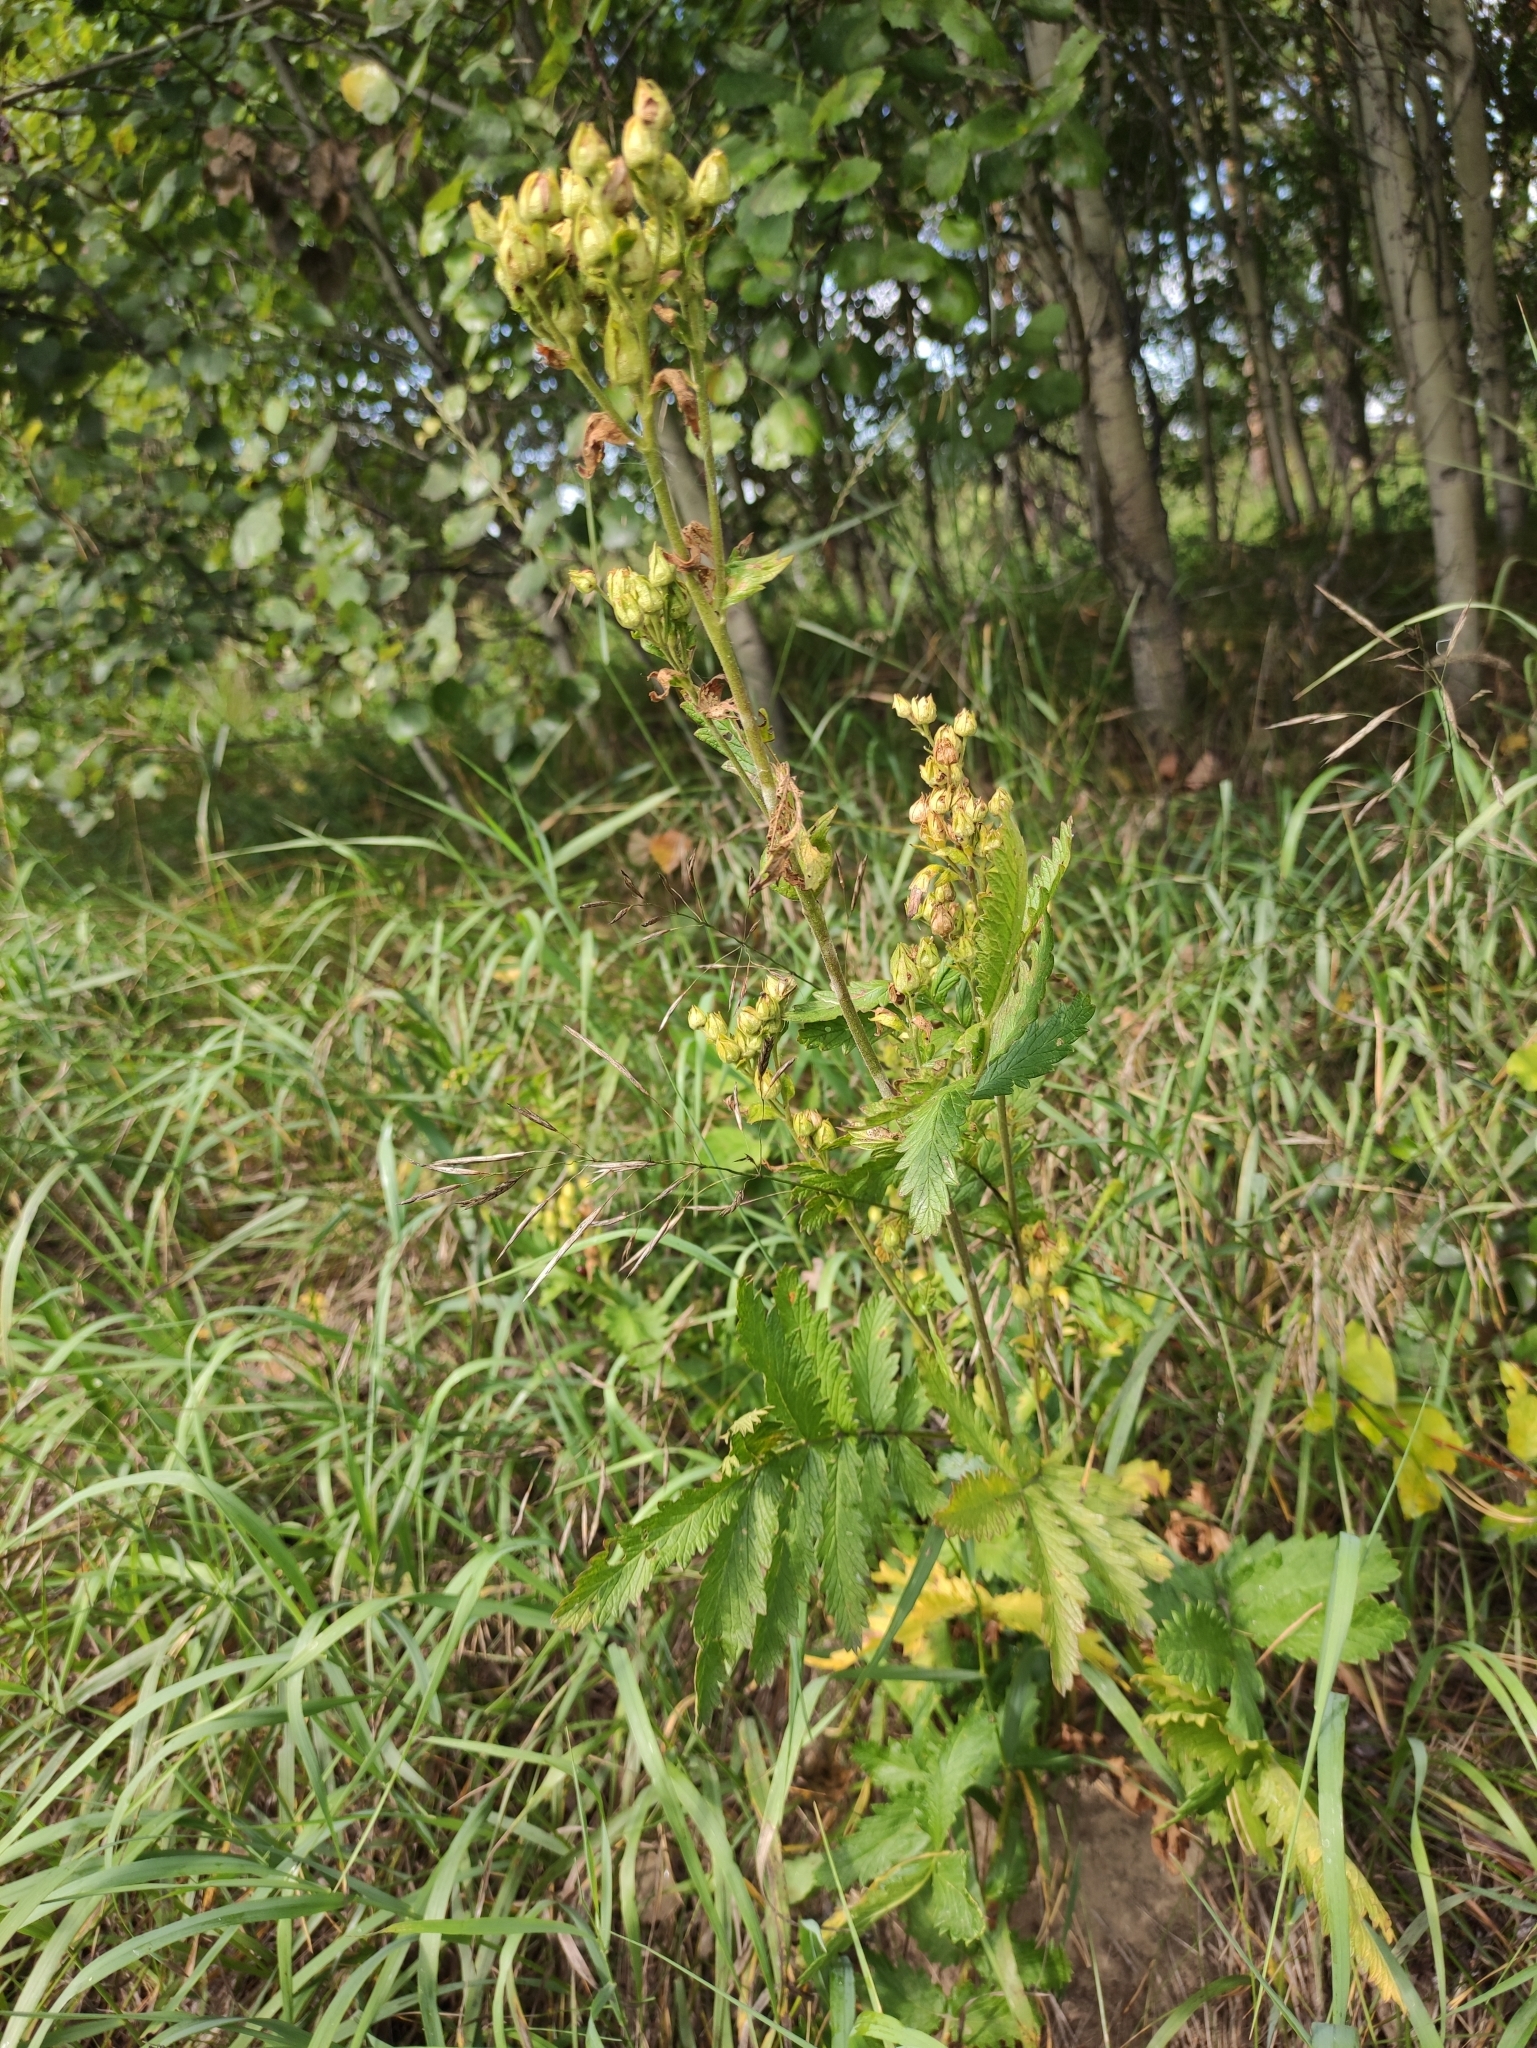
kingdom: Plantae
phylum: Tracheophyta
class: Magnoliopsida
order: Rosales
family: Rosaceae
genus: Potentilla
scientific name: Potentilla longifolia
